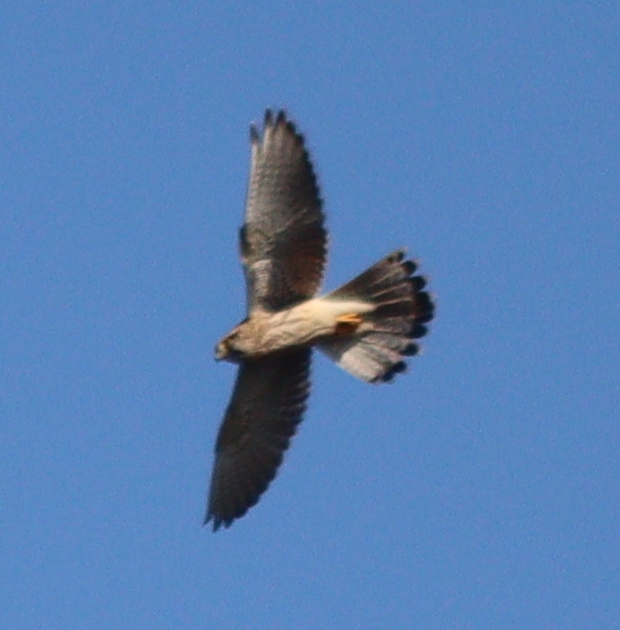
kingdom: Animalia
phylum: Chordata
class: Aves
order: Falconiformes
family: Falconidae
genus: Falco
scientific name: Falco tinnunculus
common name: Common kestrel
